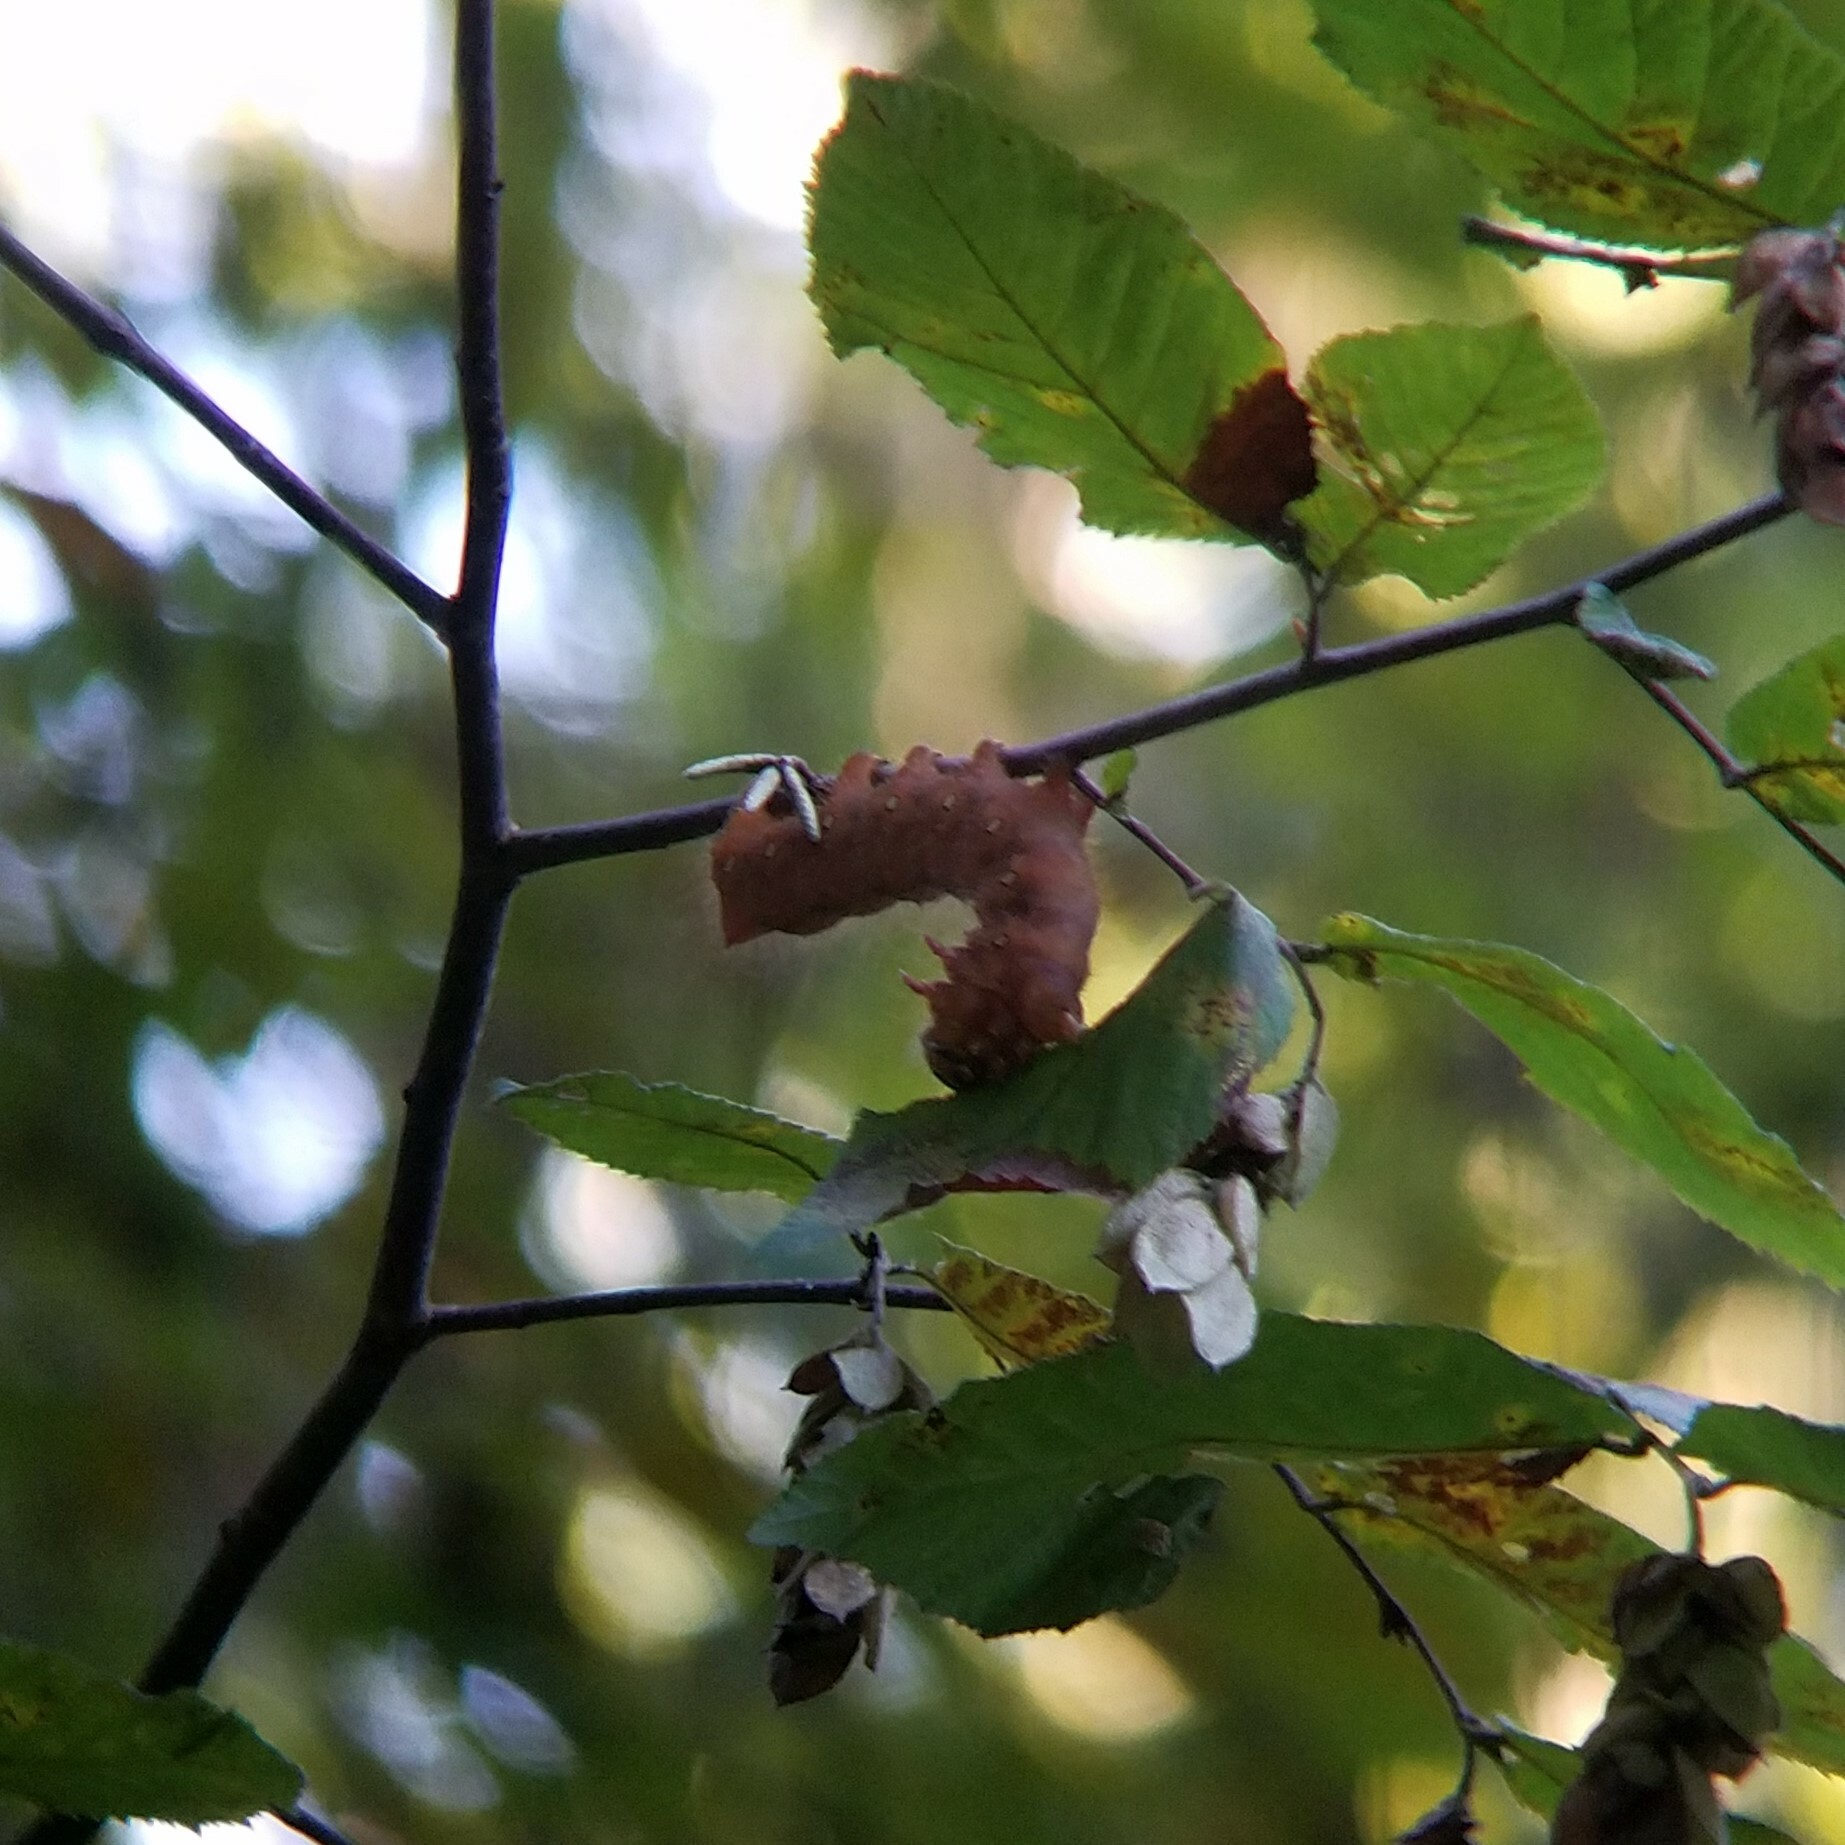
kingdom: Animalia
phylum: Arthropoda
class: Insecta
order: Lepidoptera
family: Saturniidae
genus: Eacles
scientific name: Eacles imperialis
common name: Imperial moth
